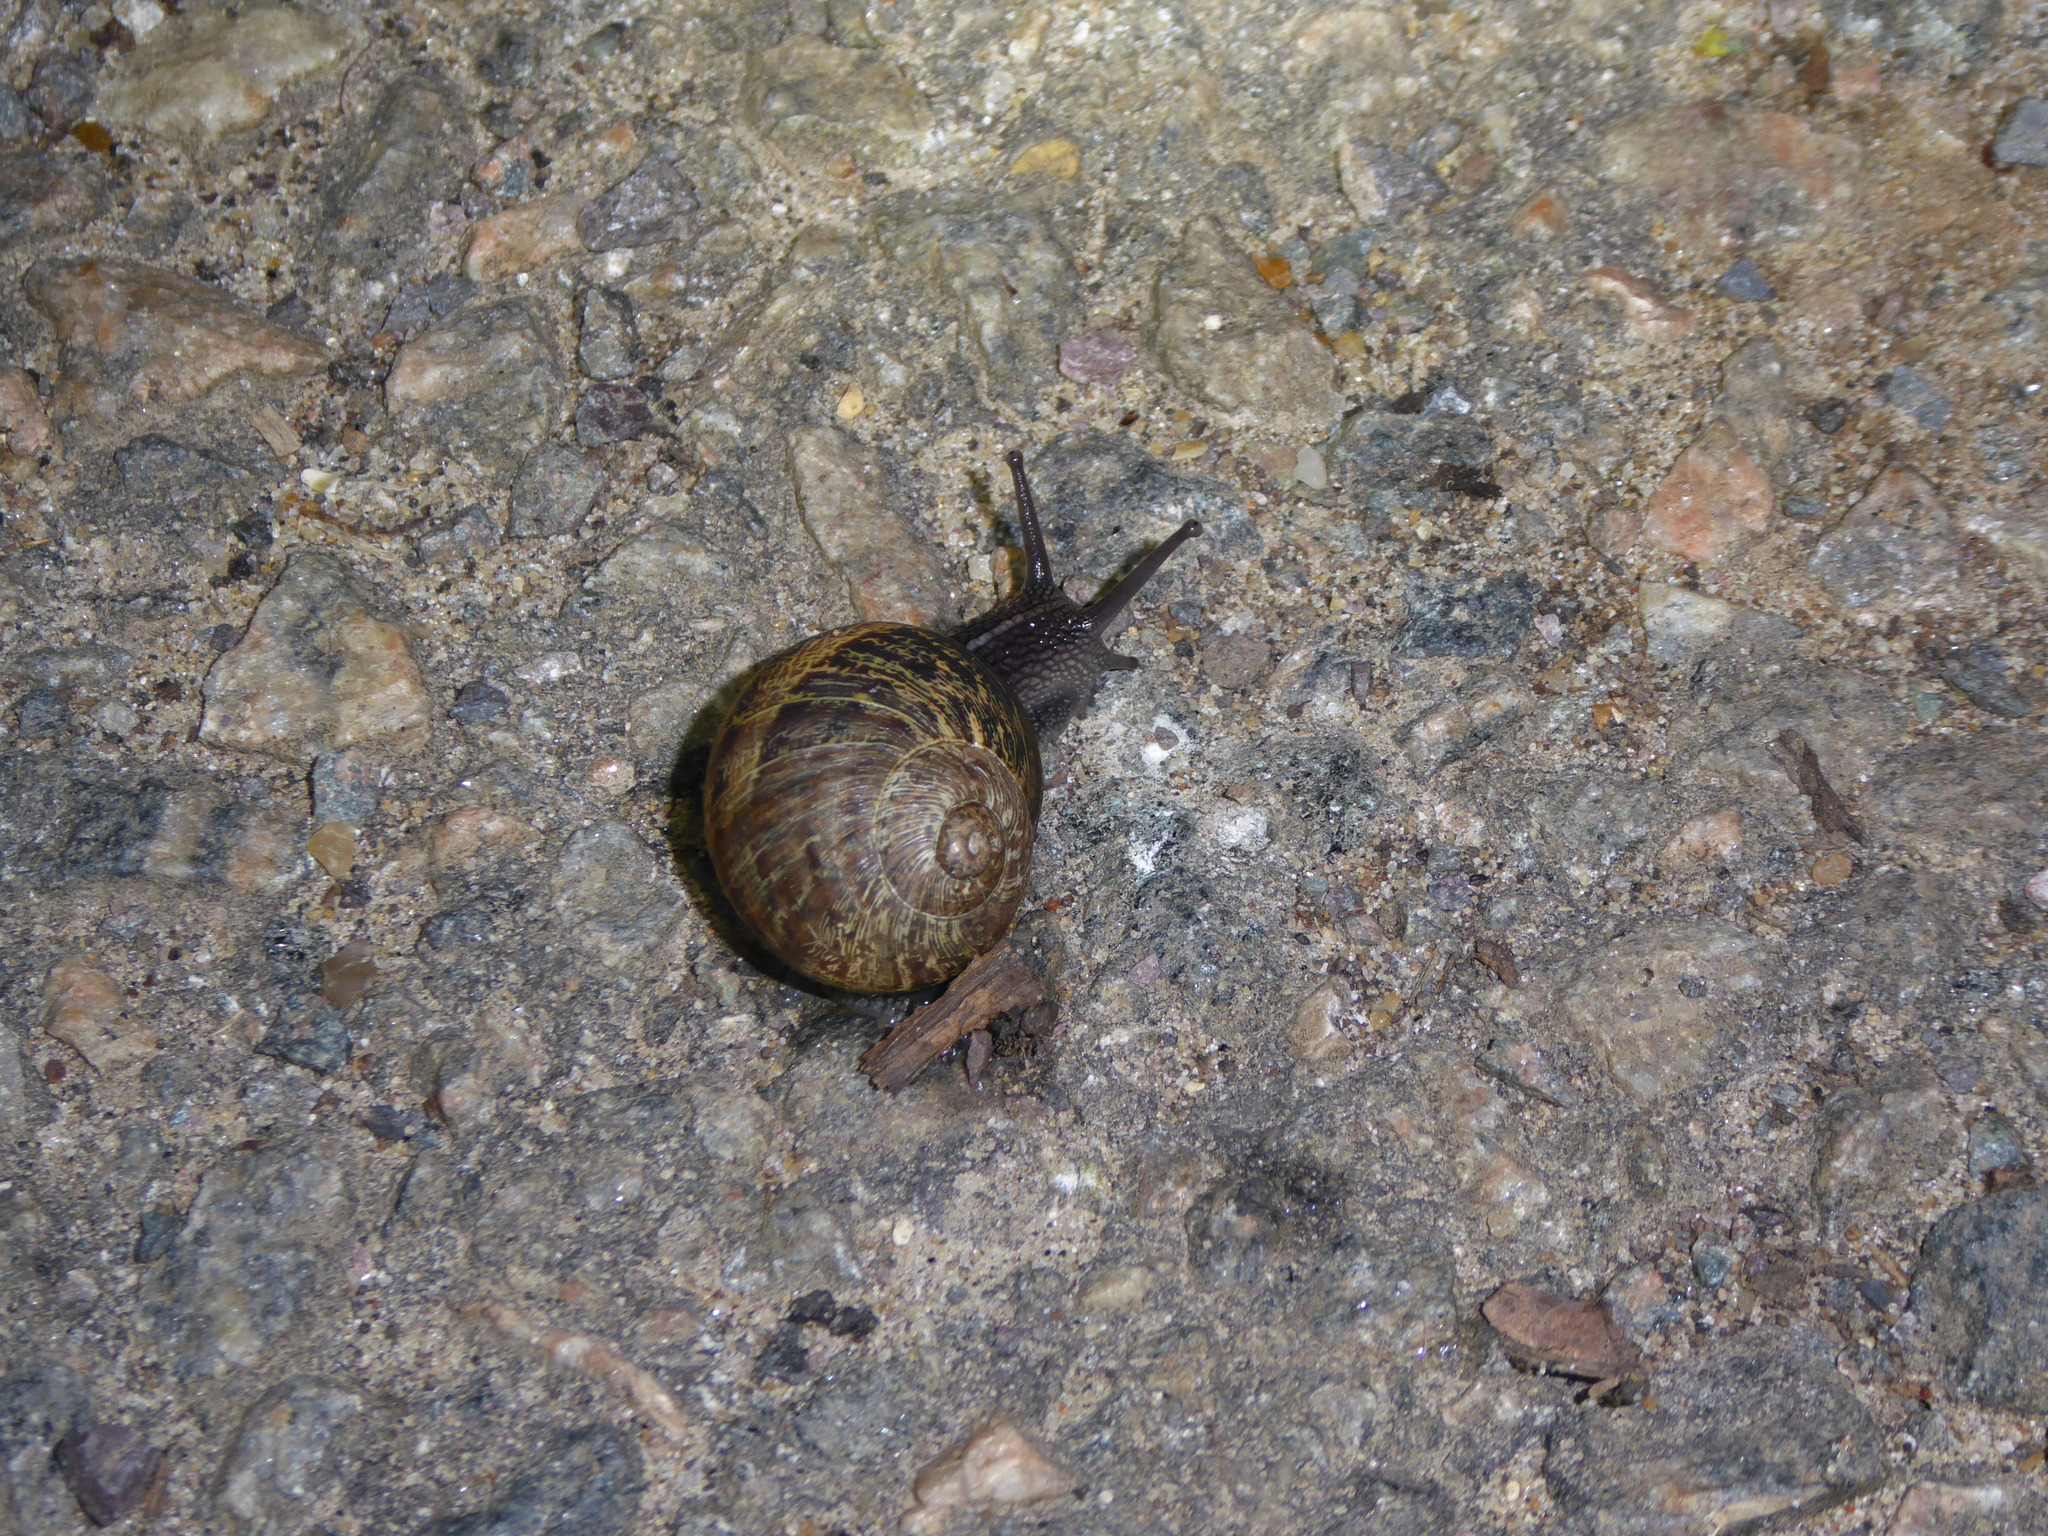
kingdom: Animalia
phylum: Mollusca
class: Gastropoda
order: Stylommatophora
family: Helicidae
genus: Cornu
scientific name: Cornu aspersum
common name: Brown garden snail
